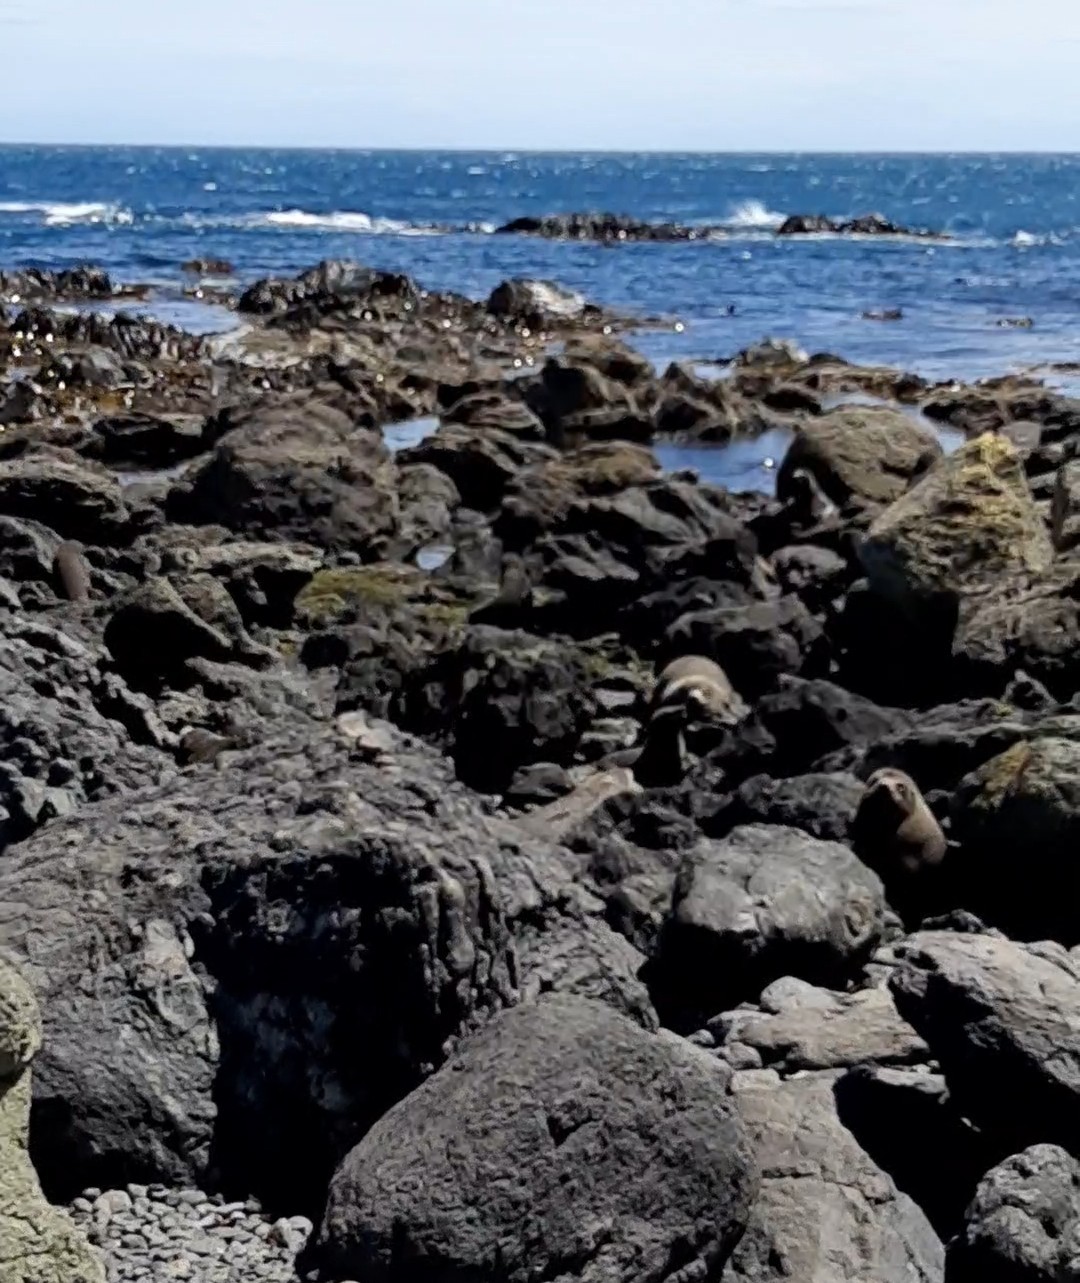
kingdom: Animalia
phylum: Chordata
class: Mammalia
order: Carnivora
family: Otariidae
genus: Arctocephalus
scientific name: Arctocephalus forsteri
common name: New zealand fur seal
